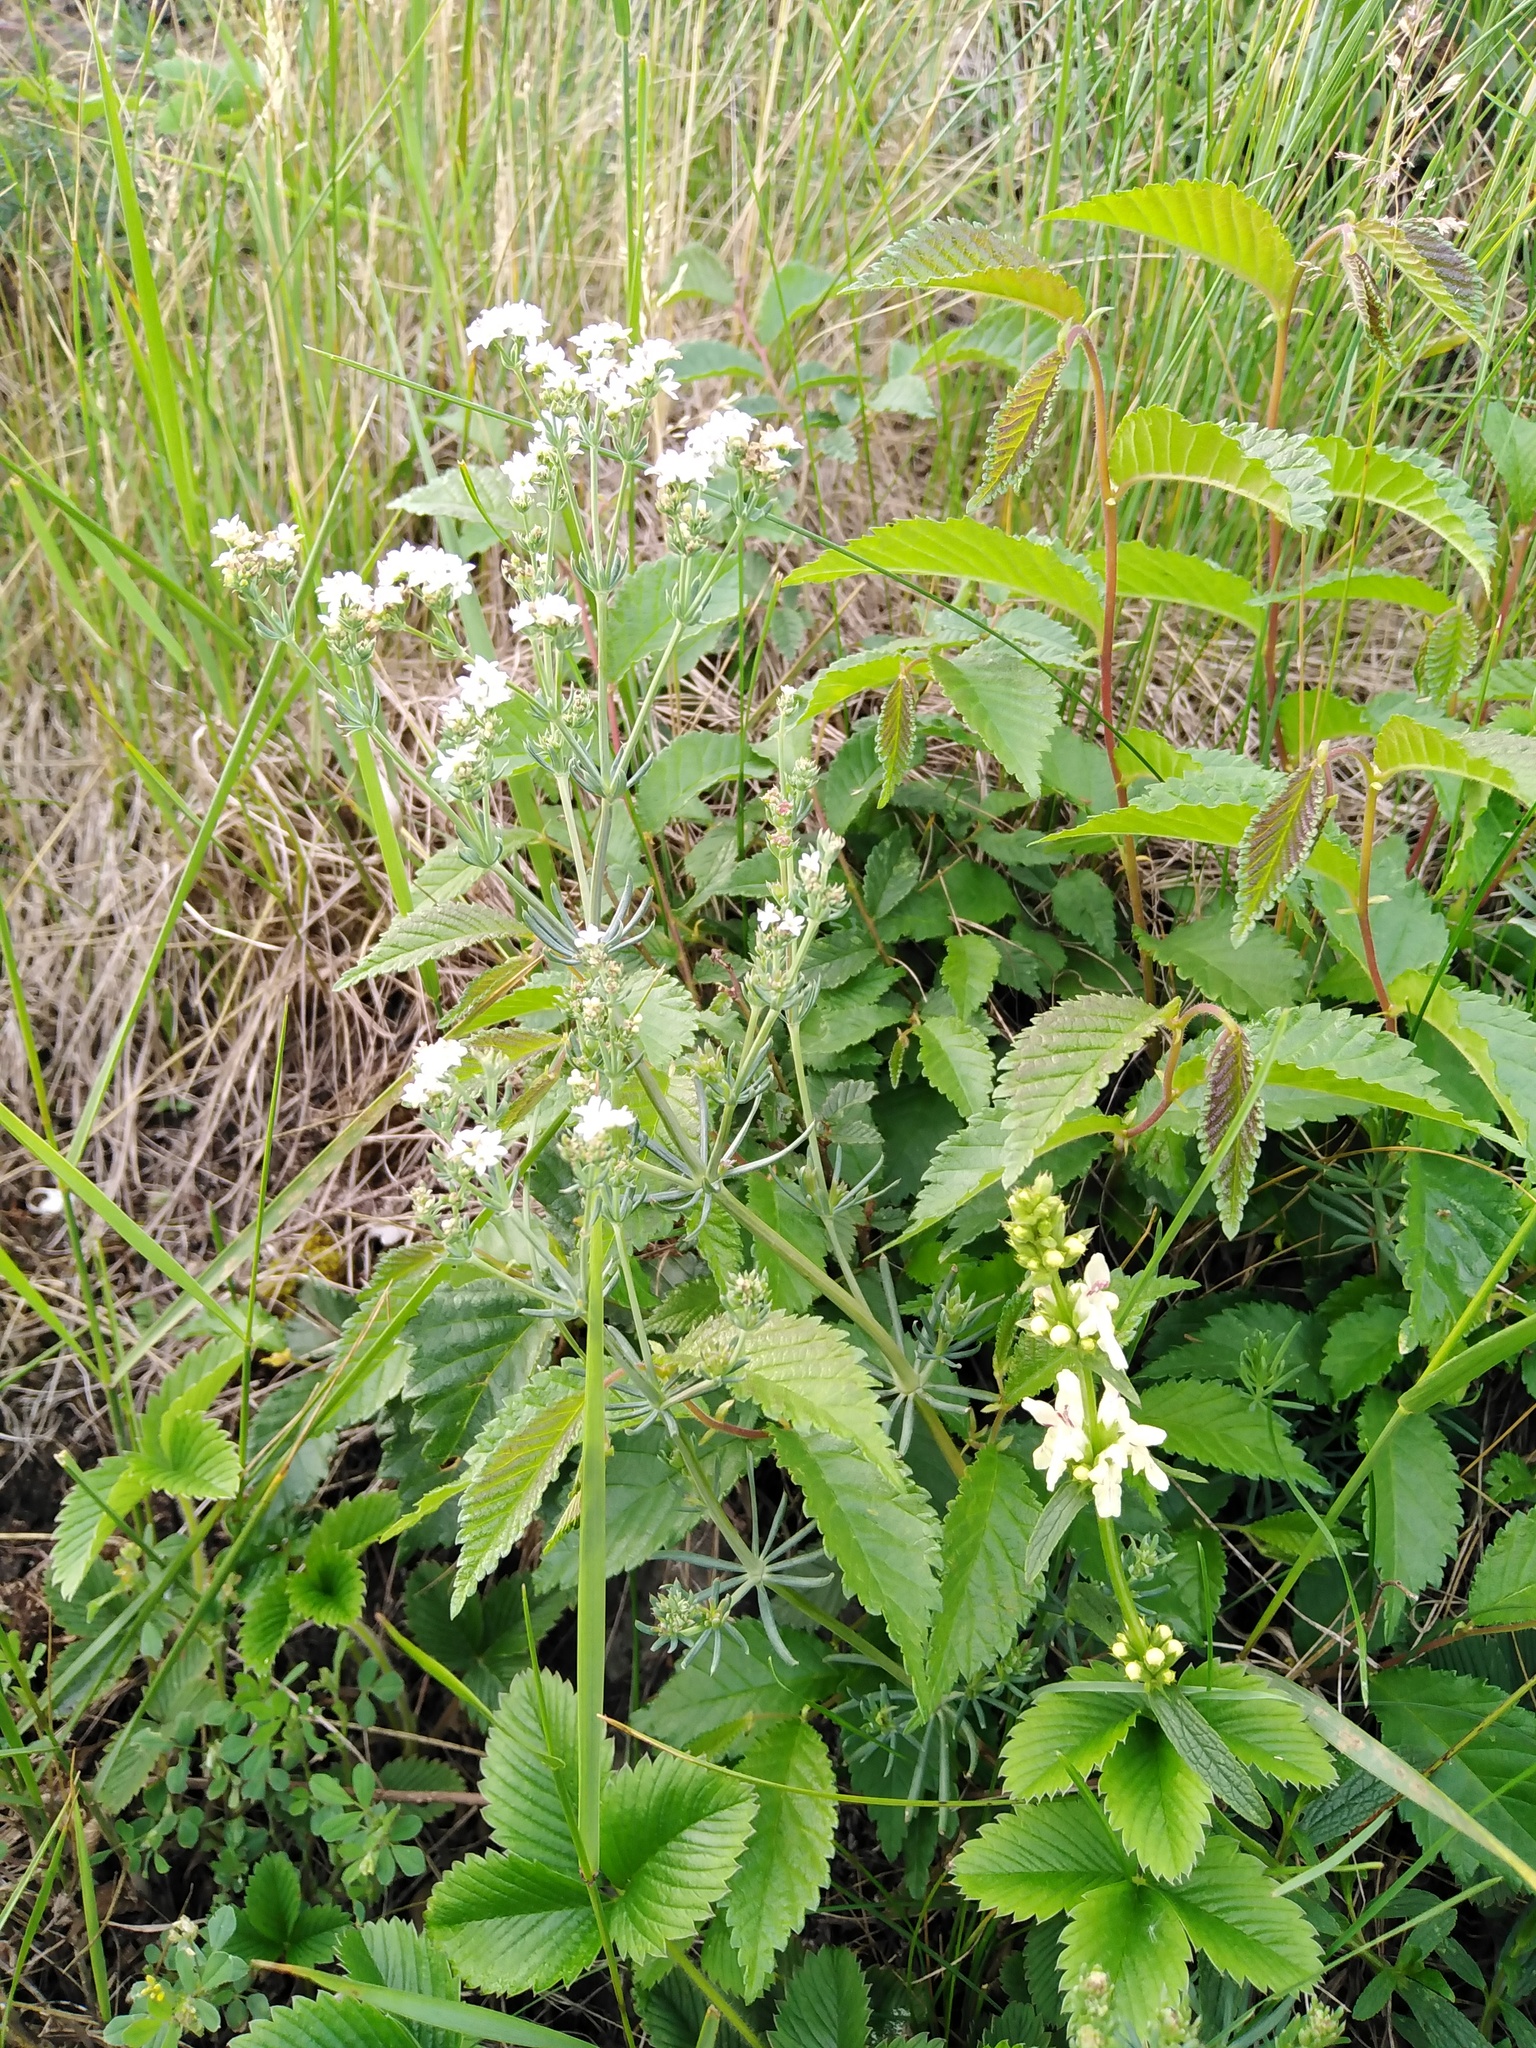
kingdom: Plantae
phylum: Tracheophyta
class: Magnoliopsida
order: Gentianales
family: Rubiaceae
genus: Galium
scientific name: Galium glaucum
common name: Waxy bedstraw
